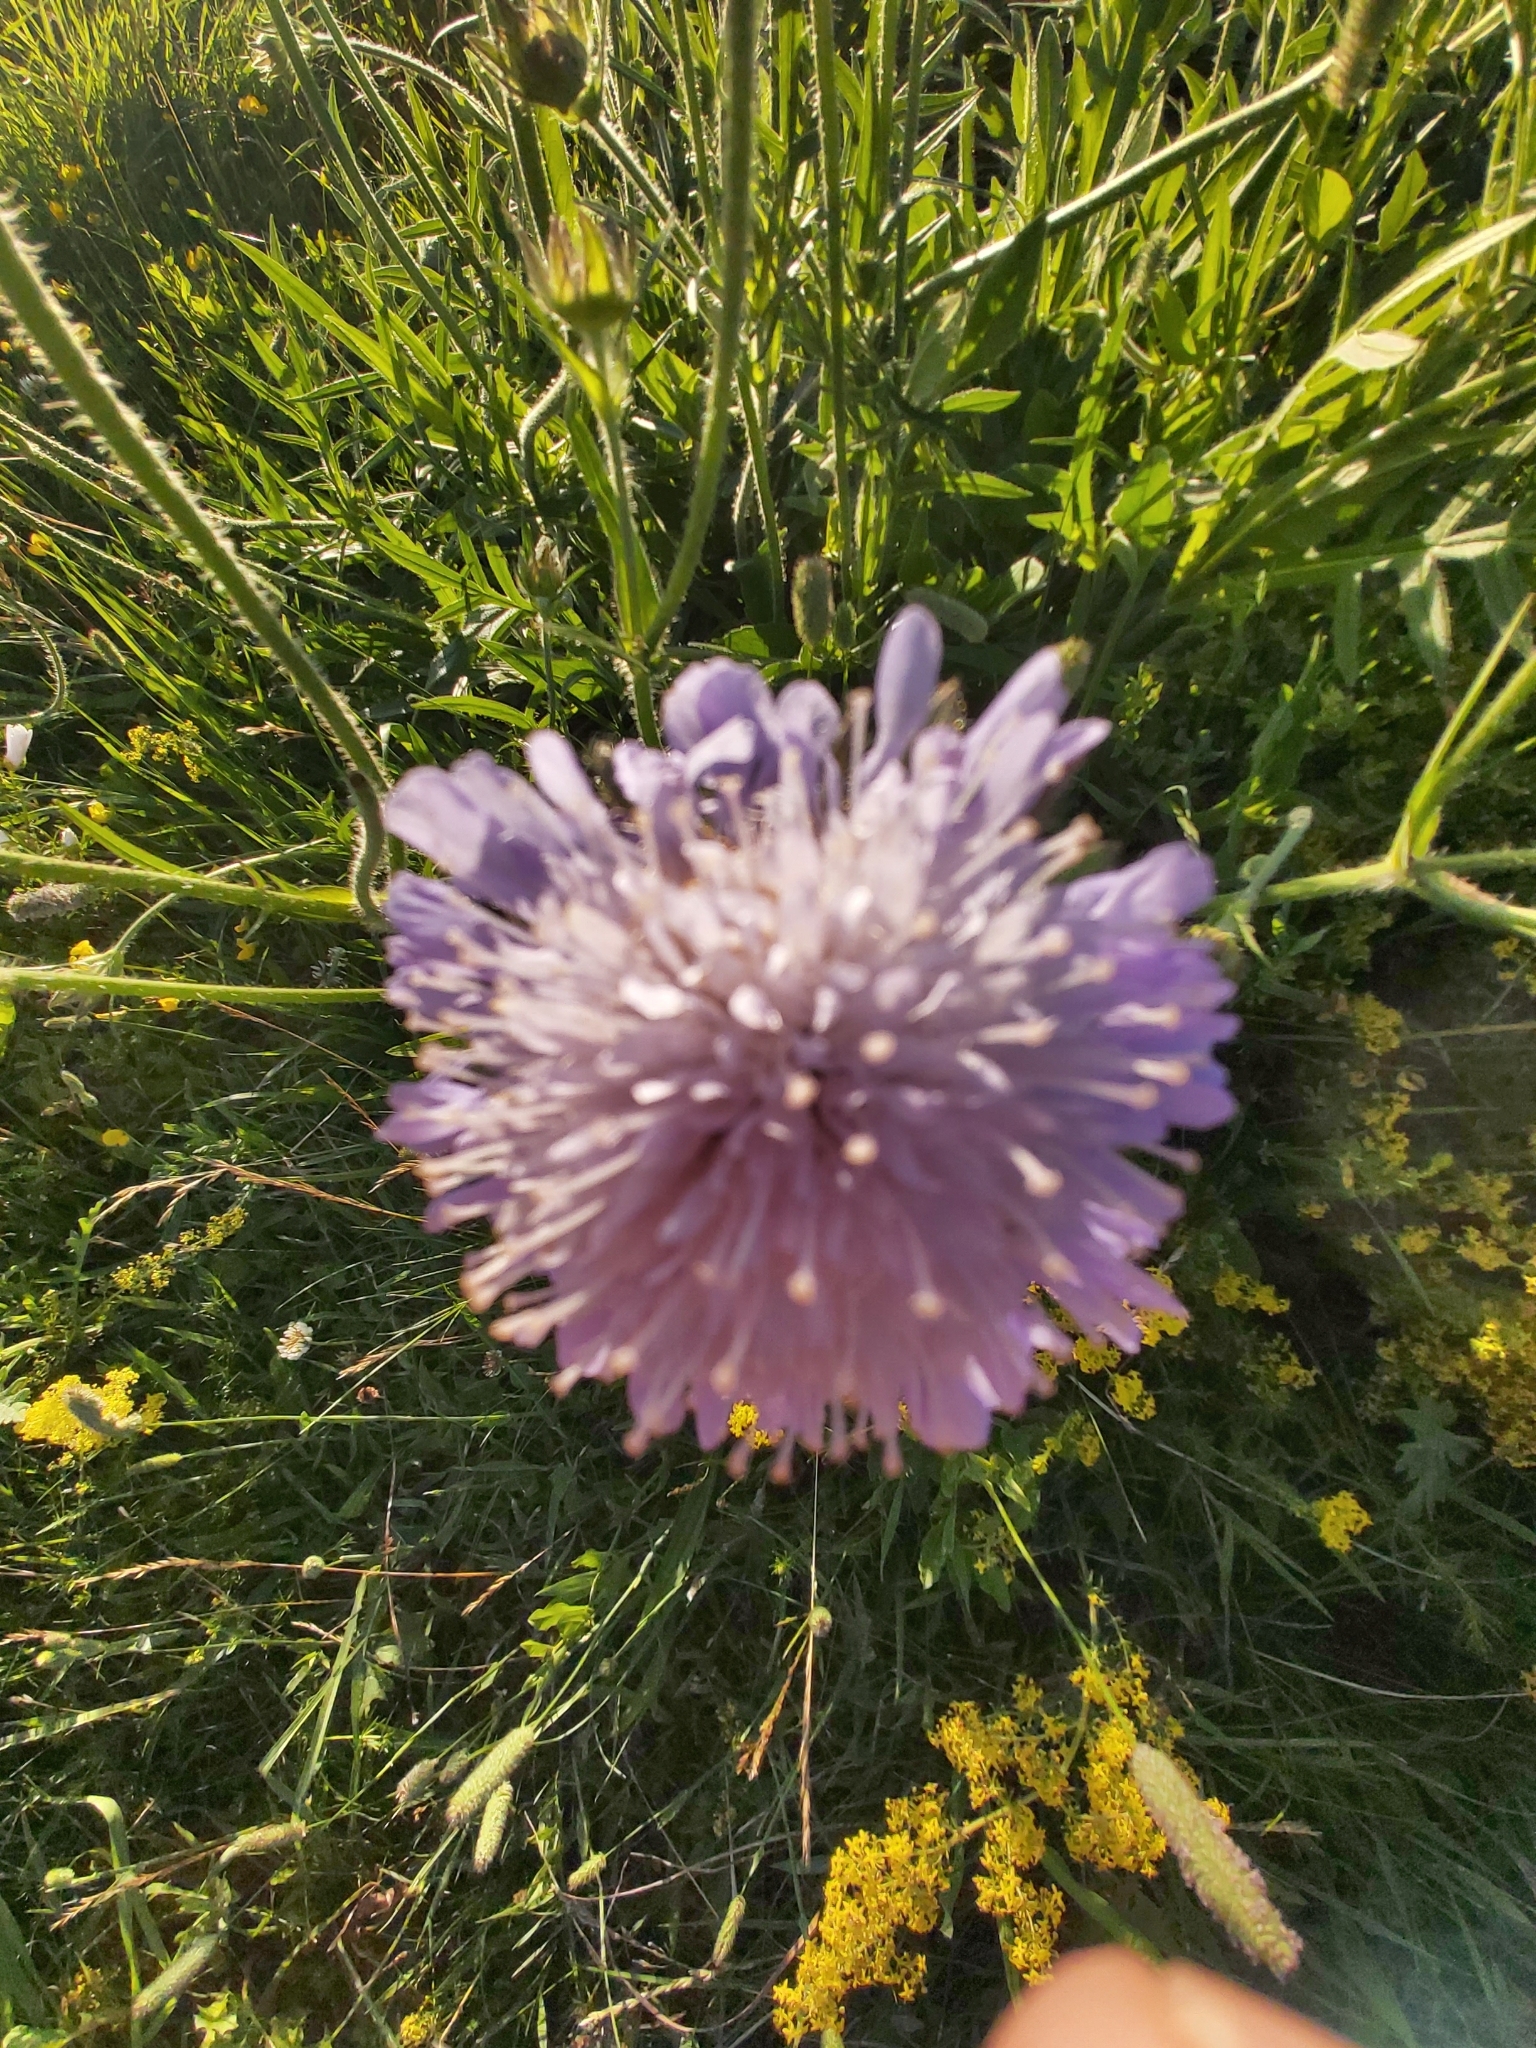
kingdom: Plantae
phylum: Tracheophyta
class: Magnoliopsida
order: Dipsacales
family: Caprifoliaceae
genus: Knautia
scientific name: Knautia arvensis
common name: Field scabiosa
